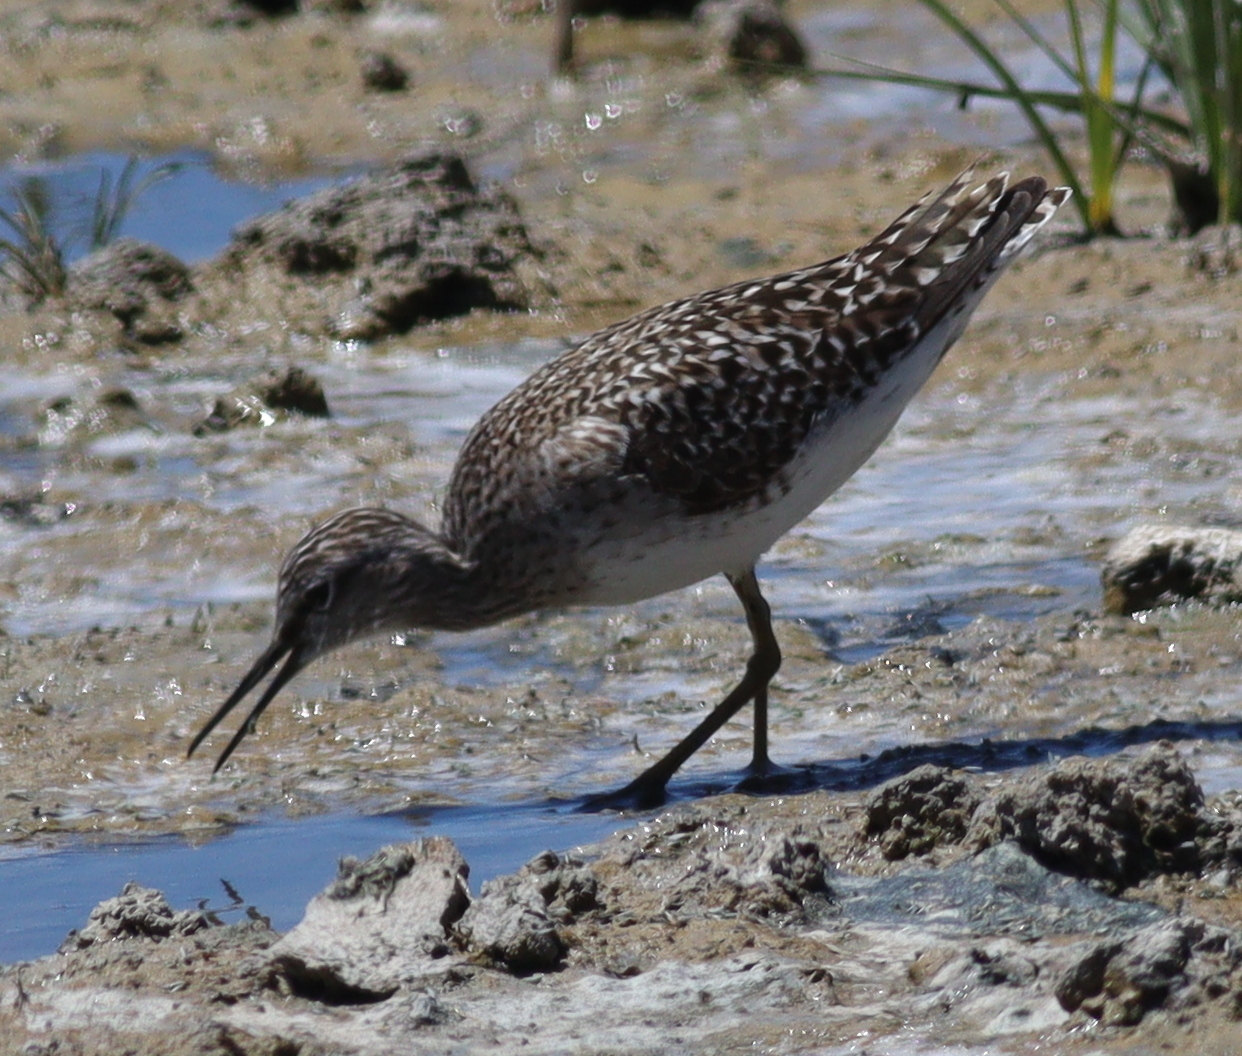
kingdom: Animalia
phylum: Chordata
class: Aves
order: Charadriiformes
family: Scolopacidae
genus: Tringa
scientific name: Tringa glareola
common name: Wood sandpiper
